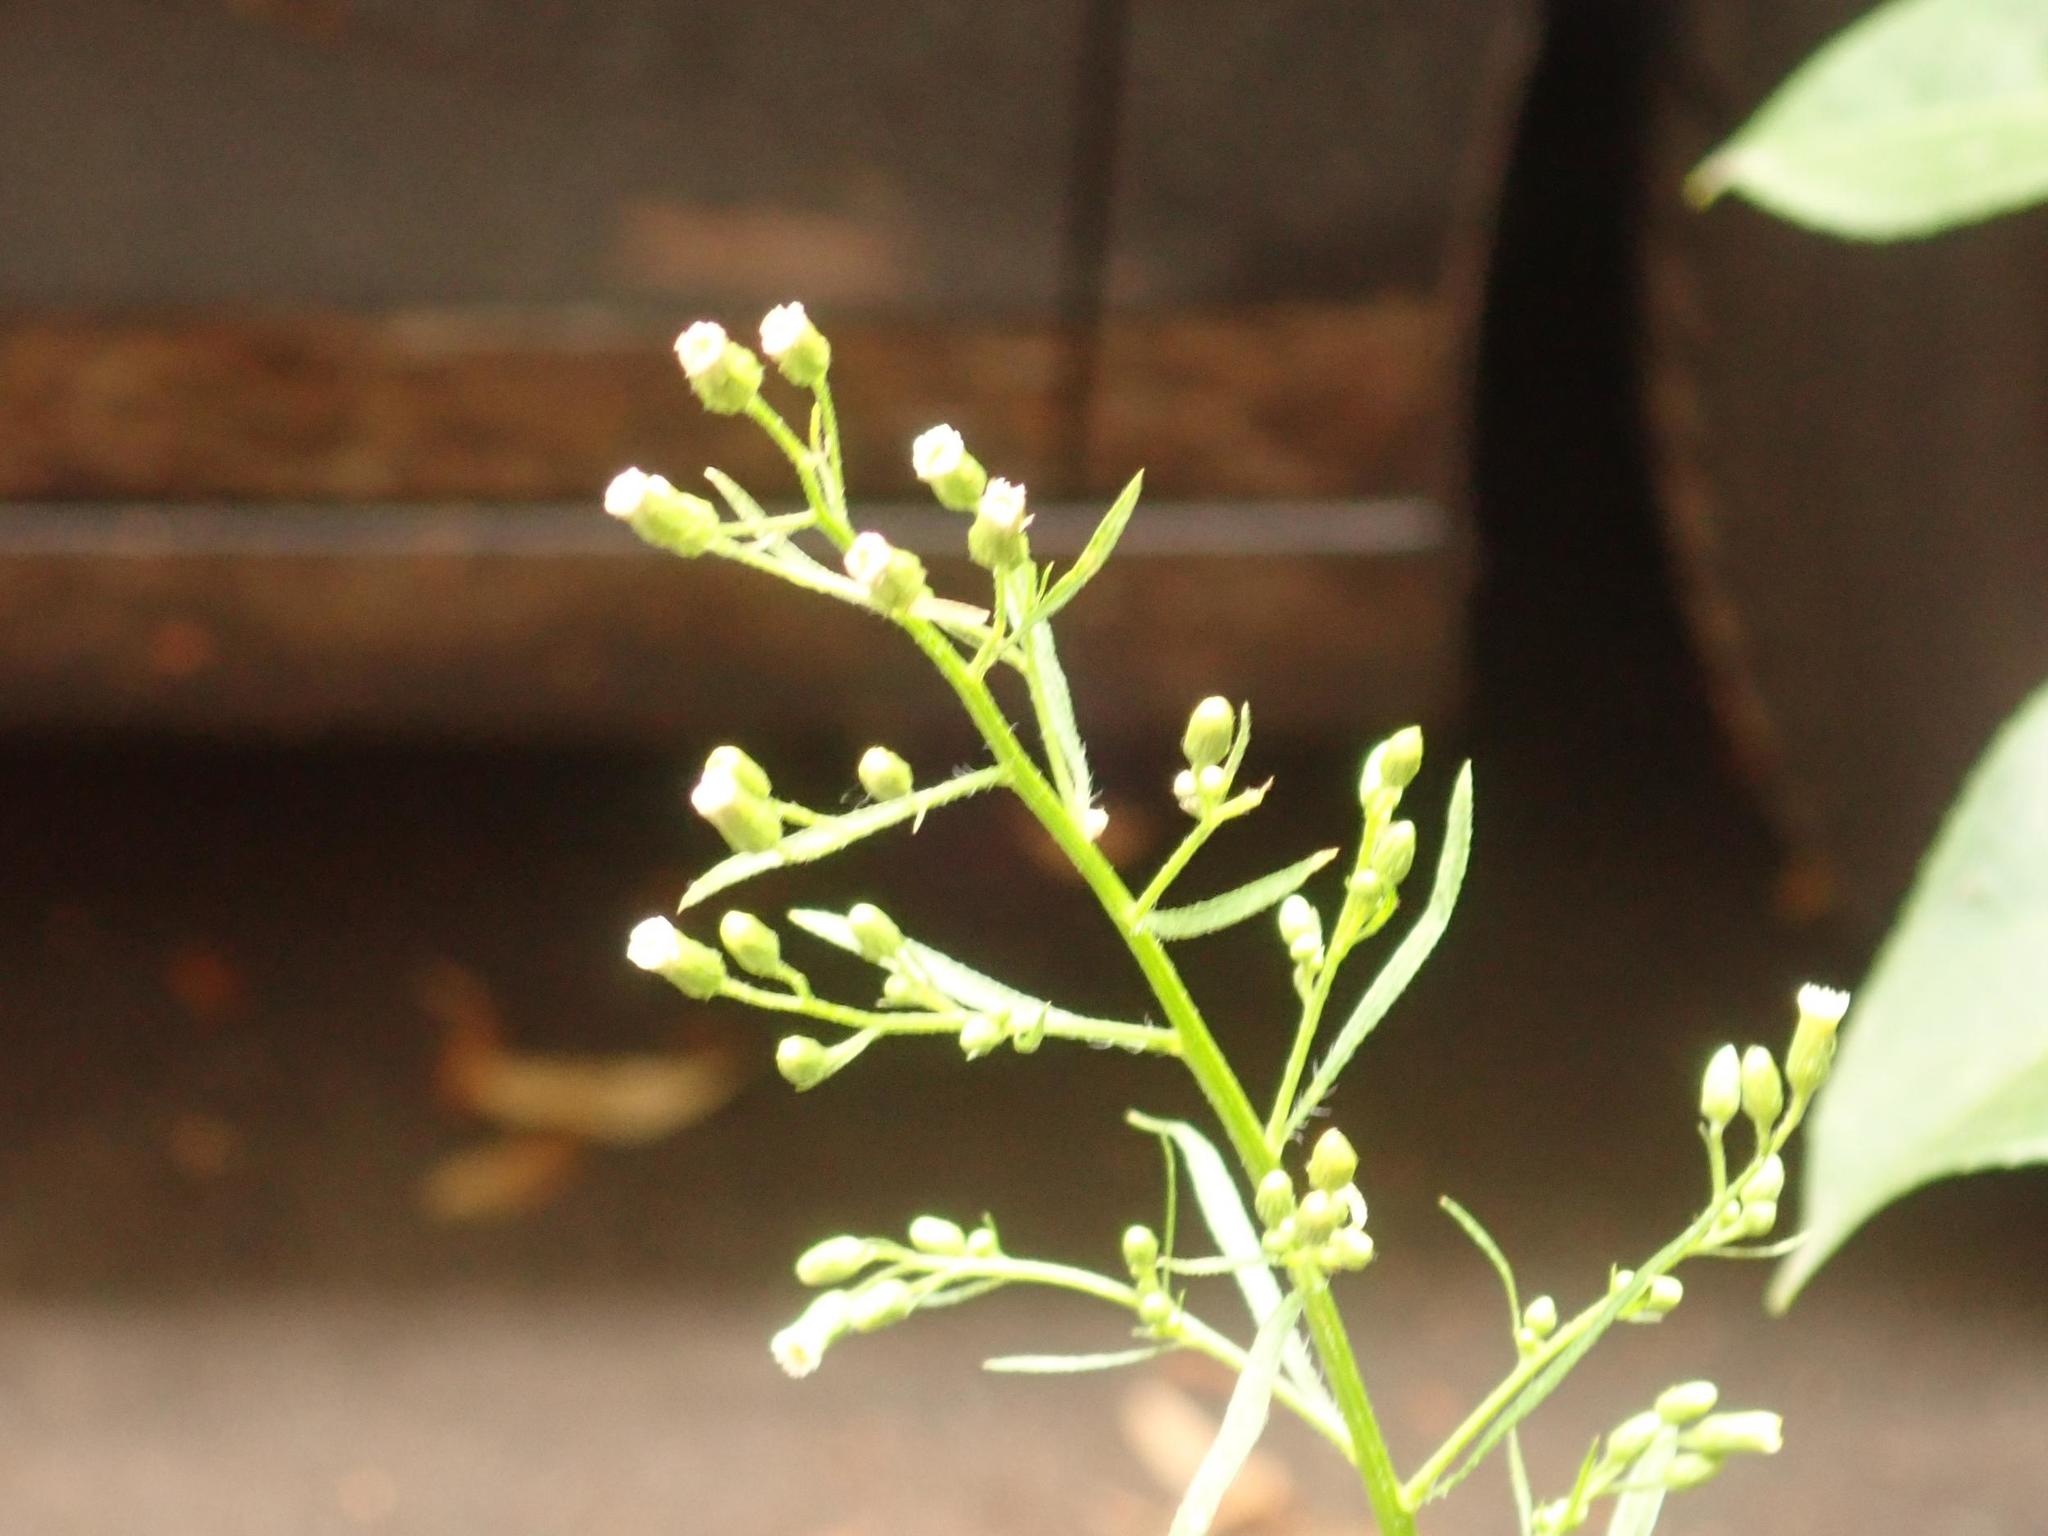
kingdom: Plantae
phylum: Tracheophyta
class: Magnoliopsida
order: Asterales
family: Asteraceae
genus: Erigeron
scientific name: Erigeron canadensis
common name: Canadian fleabane
